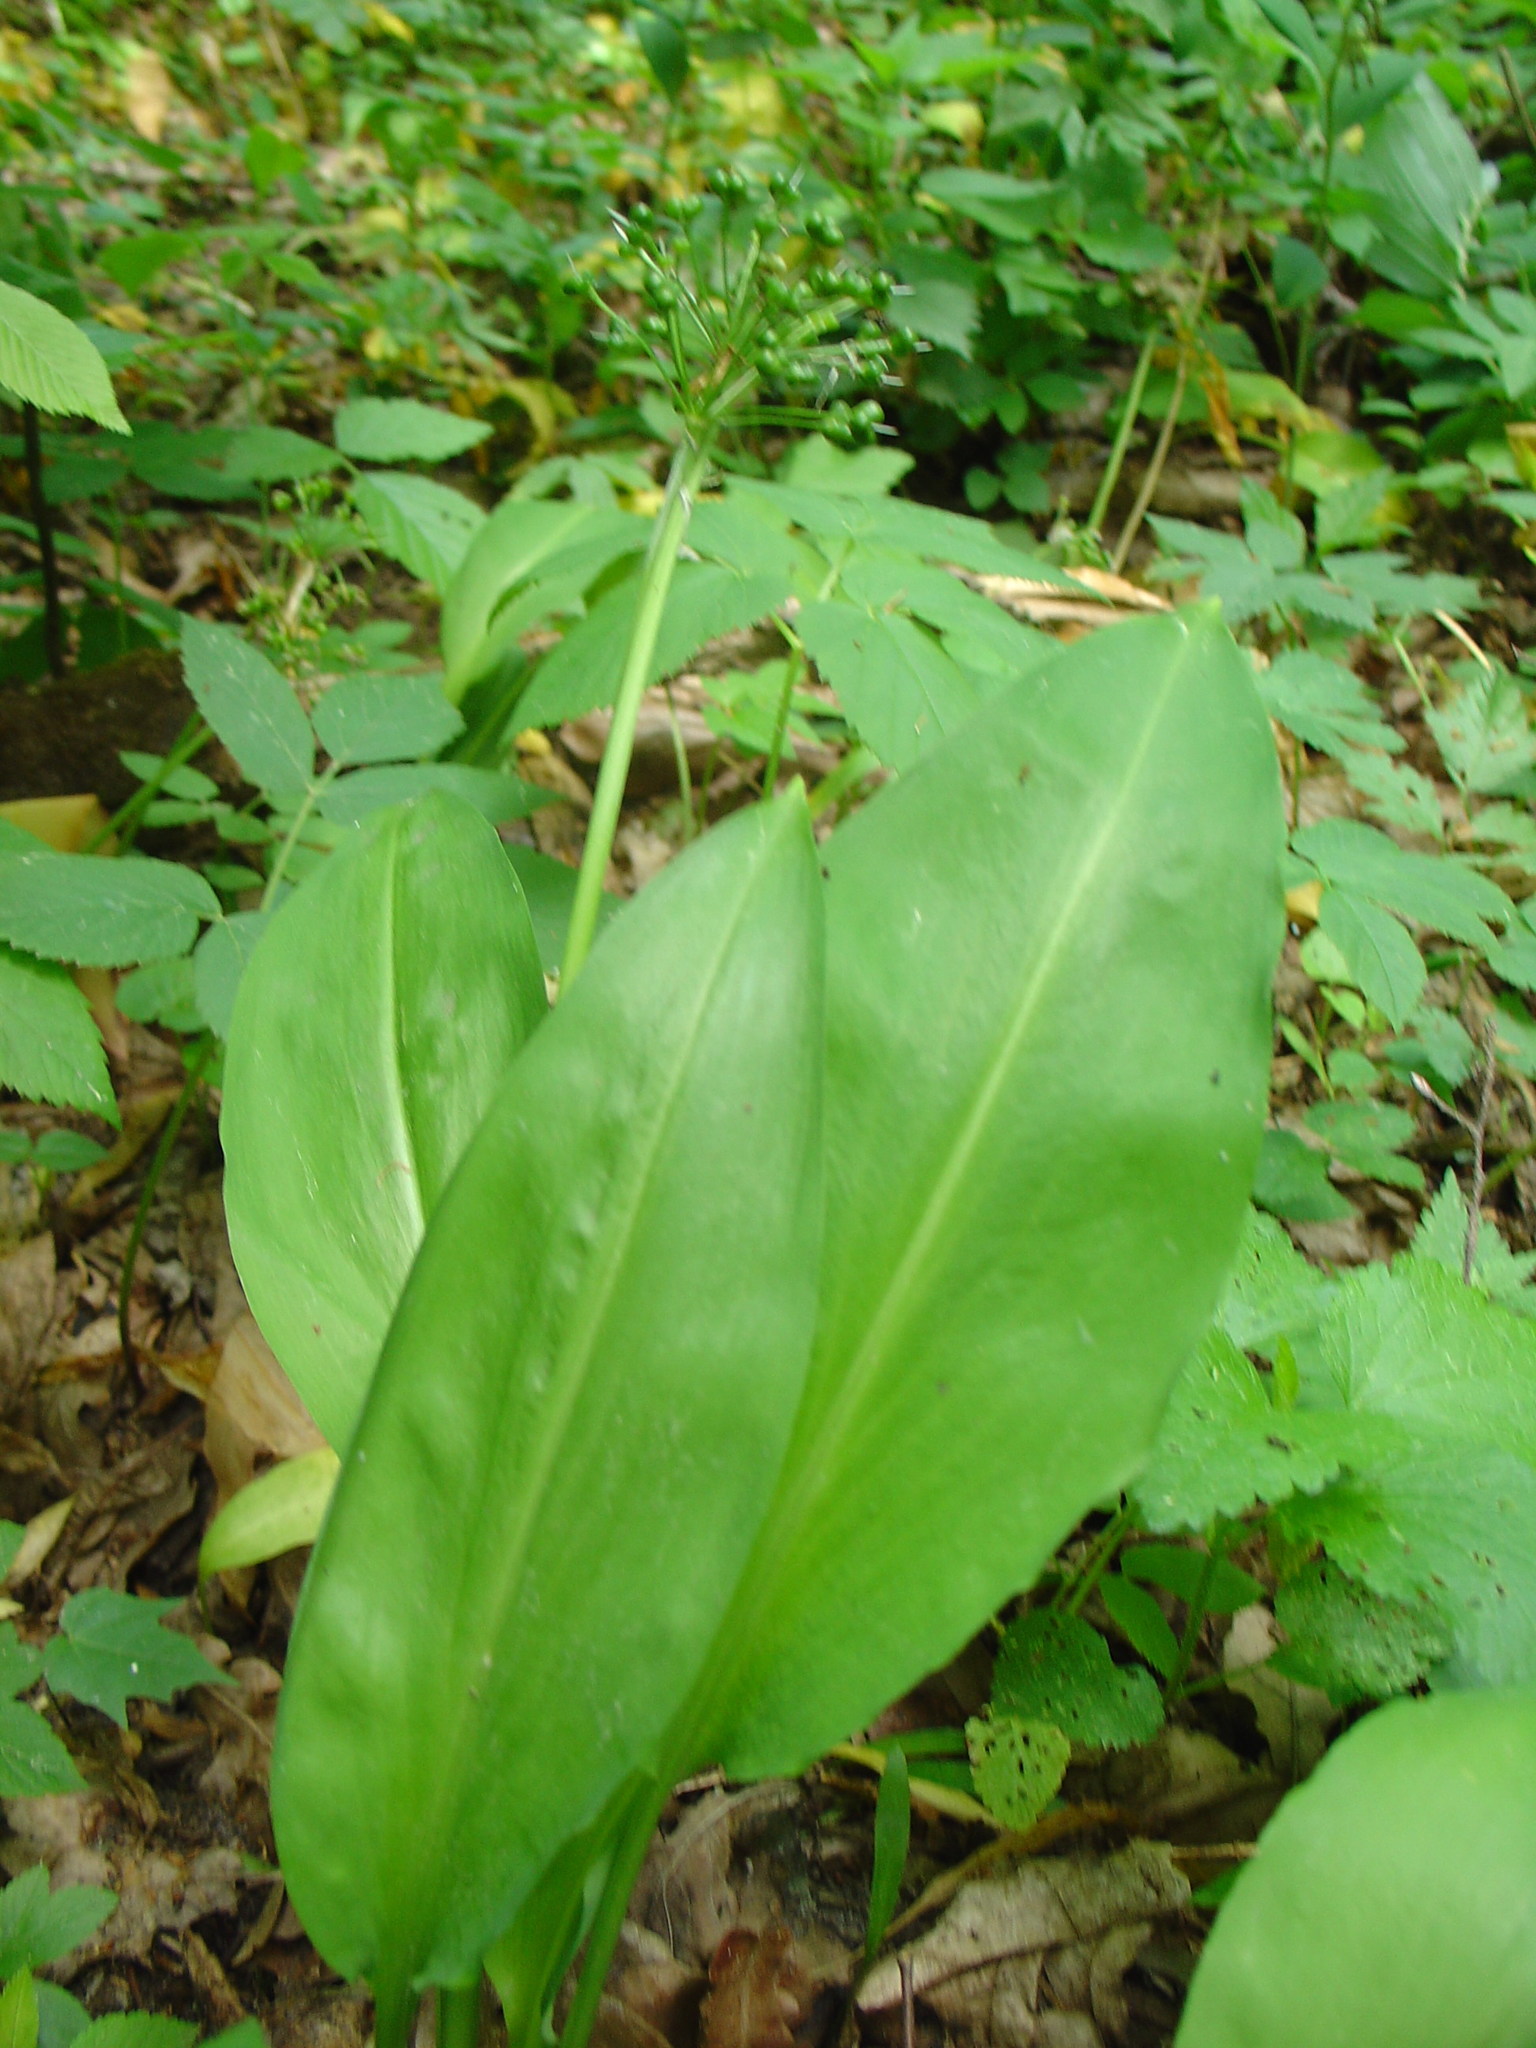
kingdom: Plantae
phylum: Tracheophyta
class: Liliopsida
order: Asparagales
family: Amaryllidaceae
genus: Allium
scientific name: Allium ursinum
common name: Ramsons
